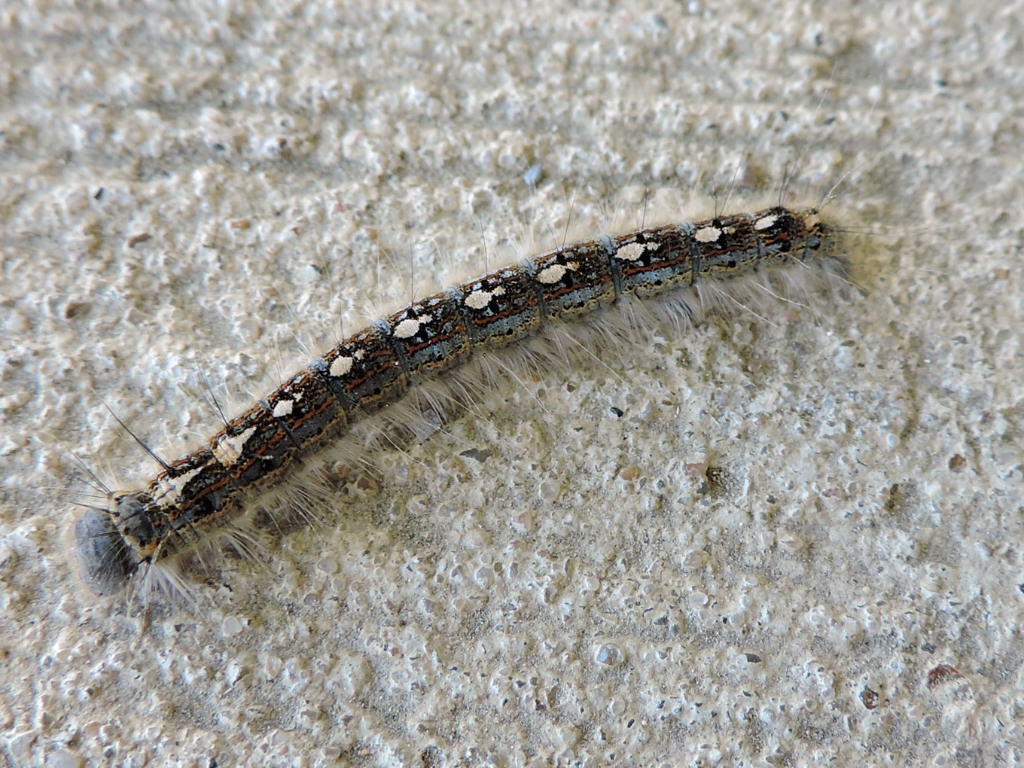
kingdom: Animalia
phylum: Arthropoda
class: Insecta
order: Lepidoptera
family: Lasiocampidae
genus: Malacosoma
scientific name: Malacosoma disstria
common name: Forest tent caterpillar
